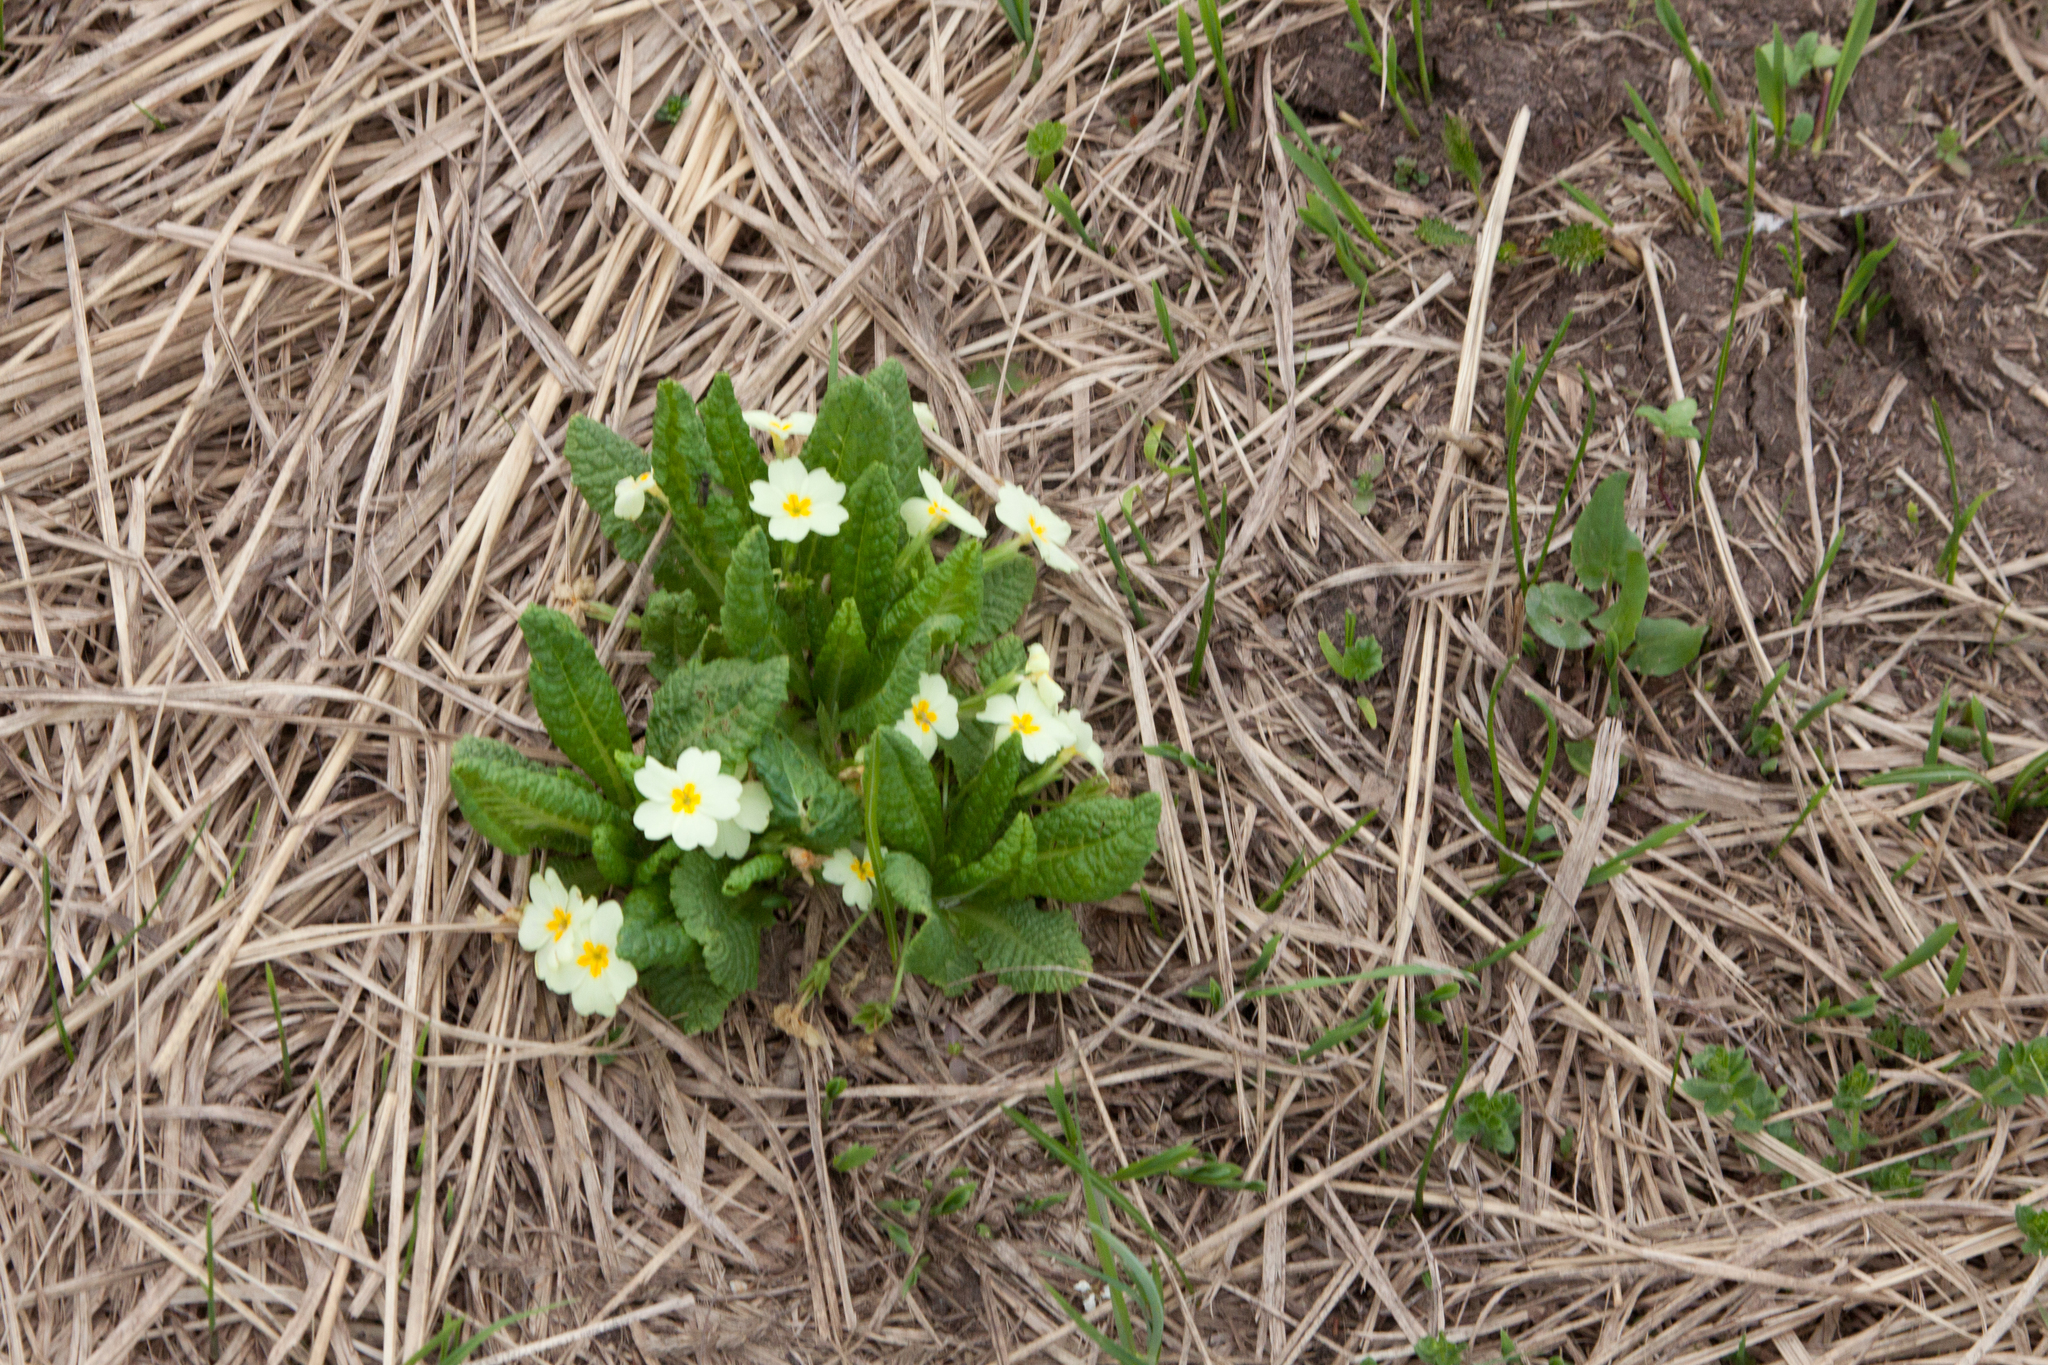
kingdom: Plantae
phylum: Tracheophyta
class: Magnoliopsida
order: Ericales
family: Primulaceae
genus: Primula
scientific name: Primula vulgaris
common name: Primrose
